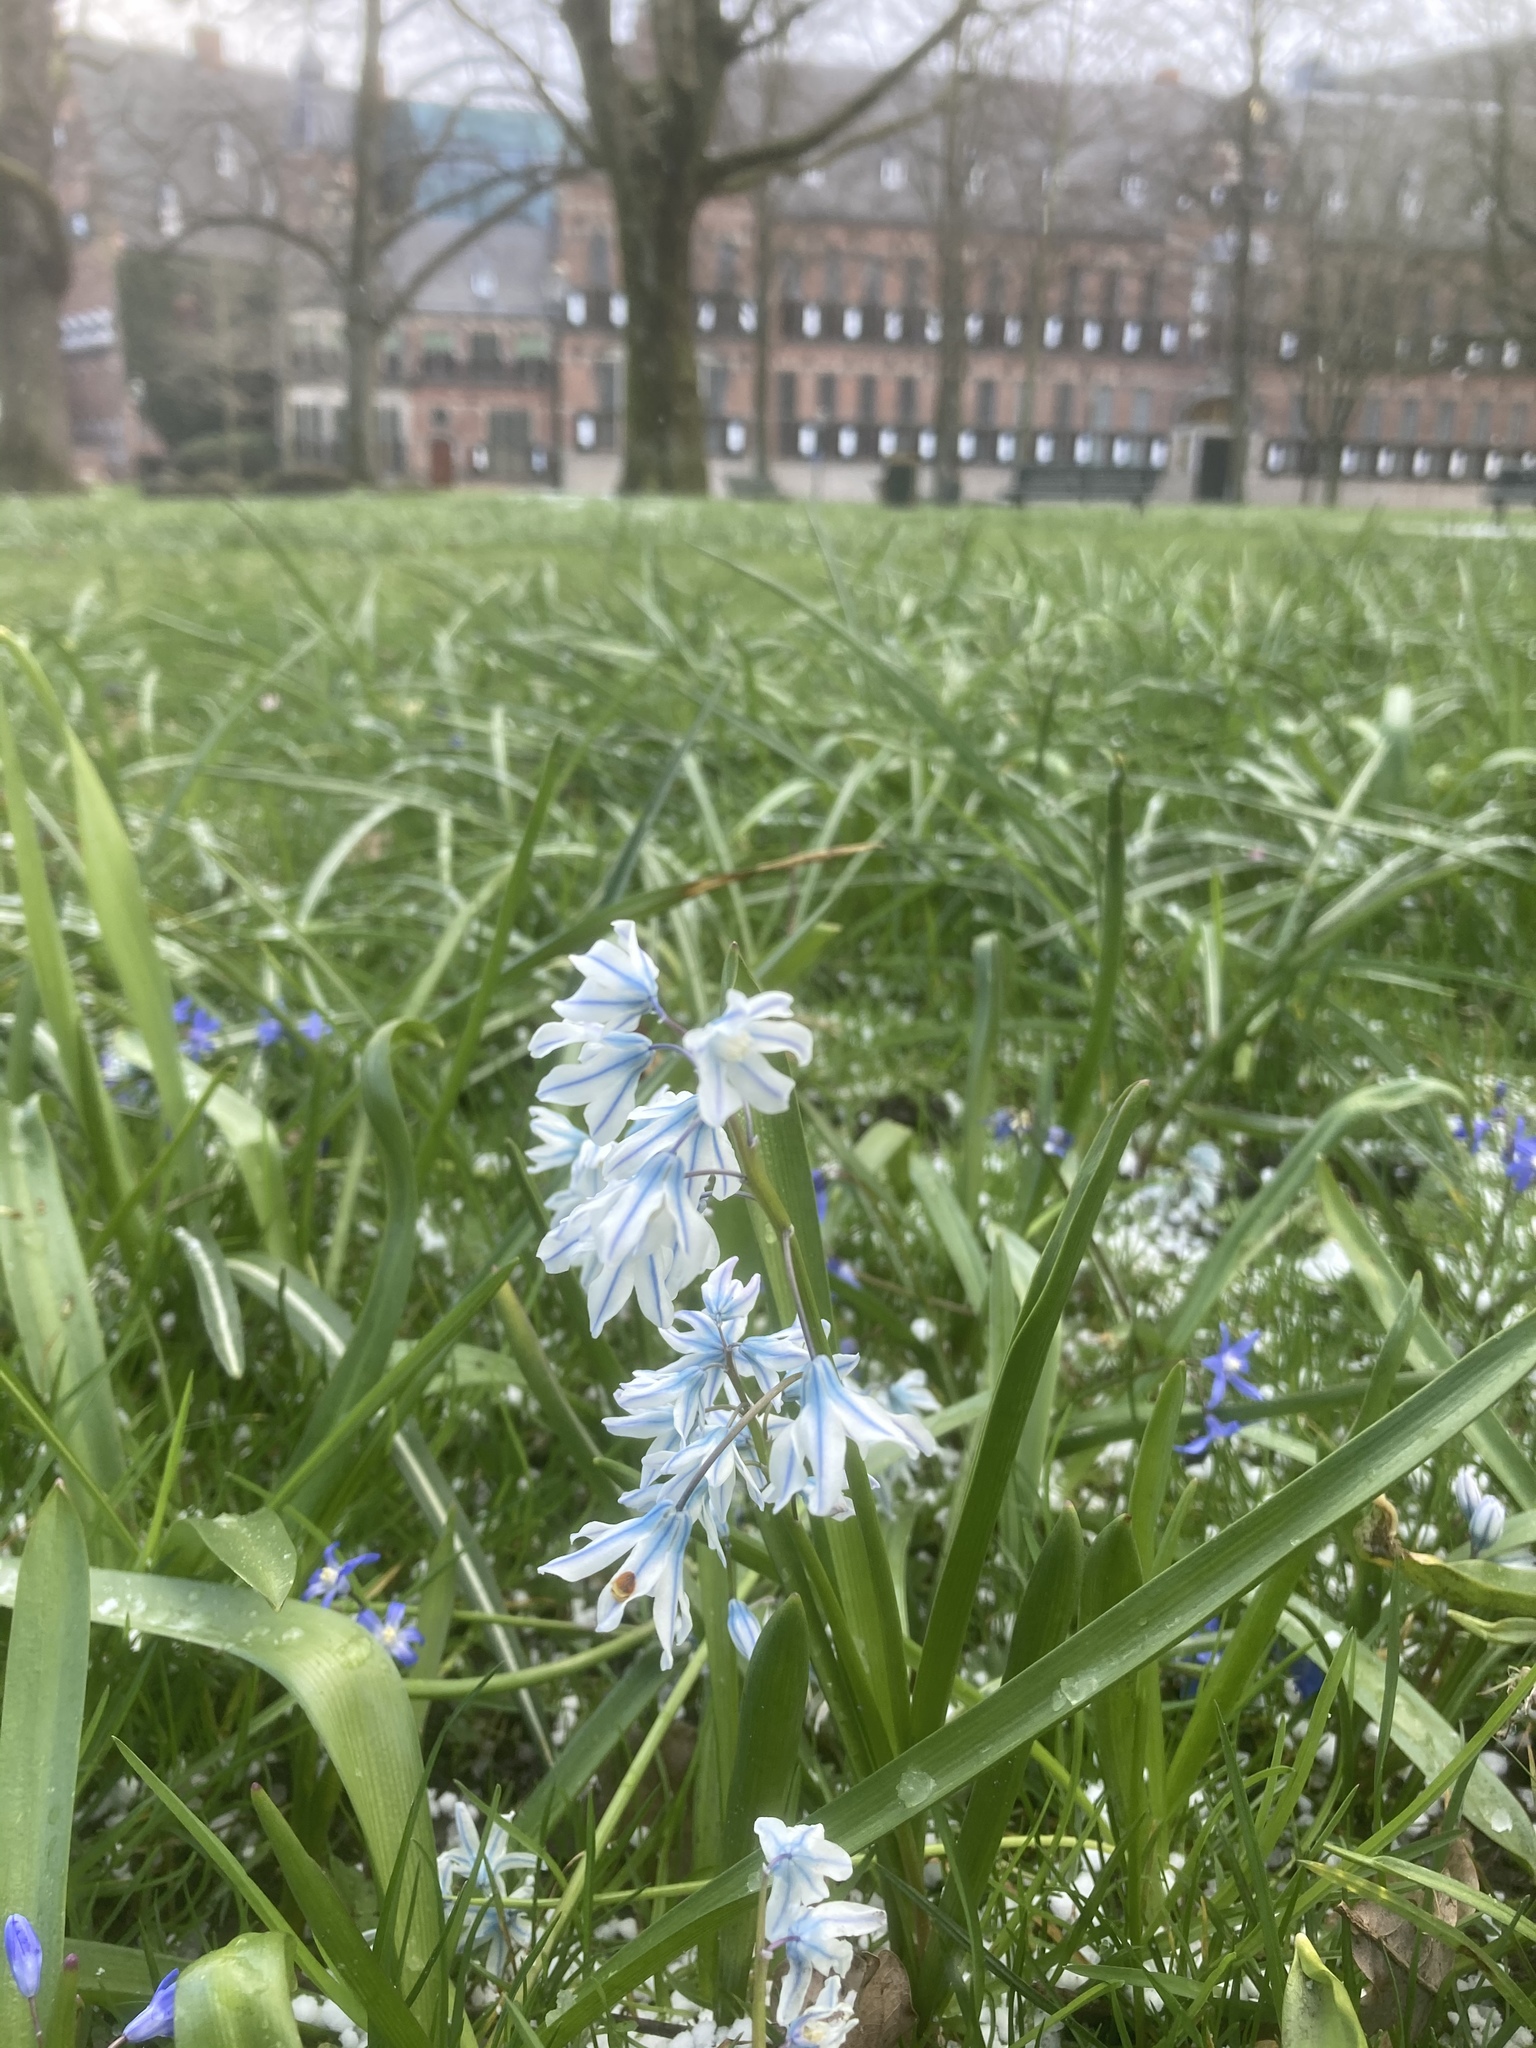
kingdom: Plantae
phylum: Tracheophyta
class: Liliopsida
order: Asparagales
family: Asparagaceae
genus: Puschkinia
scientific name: Puschkinia scilloides
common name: Striped squill
